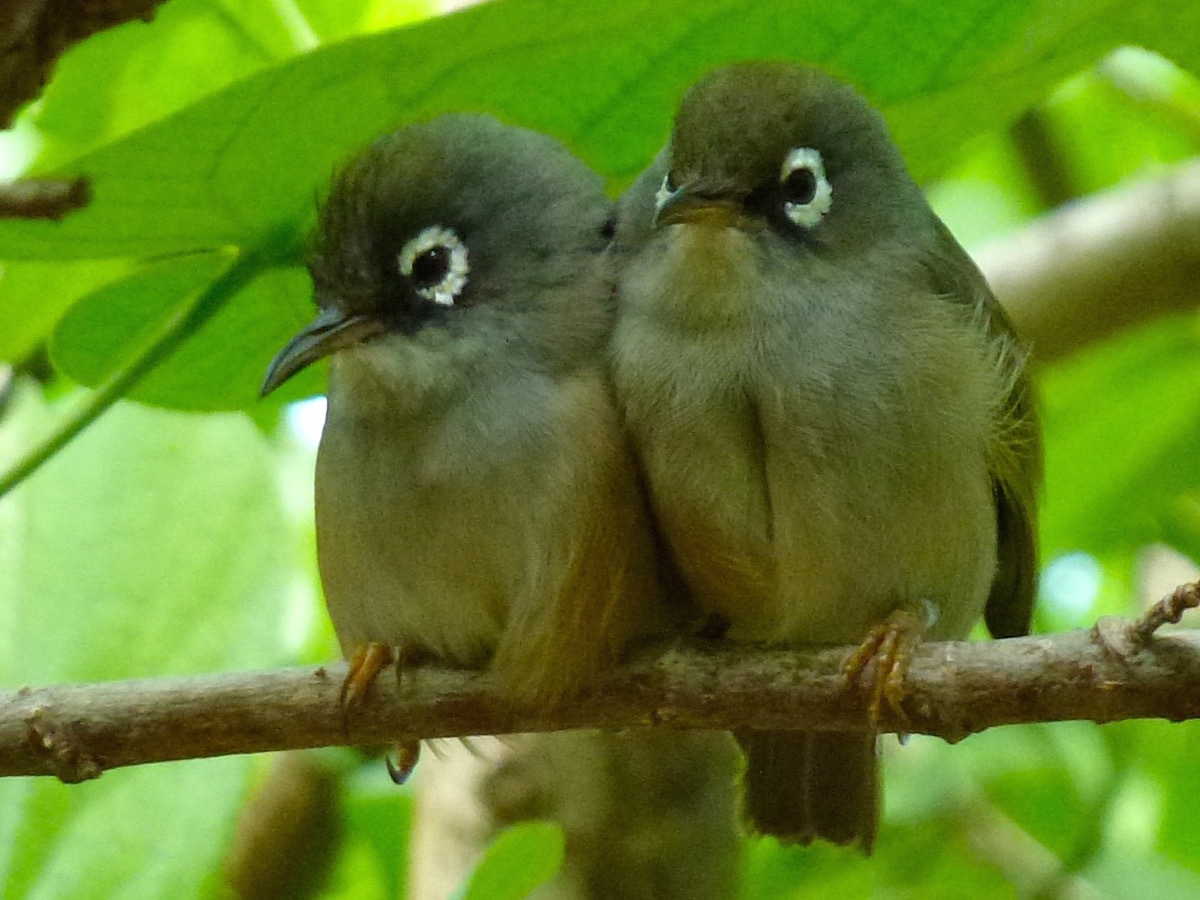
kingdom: Animalia
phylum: Chordata
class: Aves
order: Passeriformes
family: Zosteropidae
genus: Zosterops
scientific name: Zosterops chloronothos
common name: Mauritius olive white-eye
